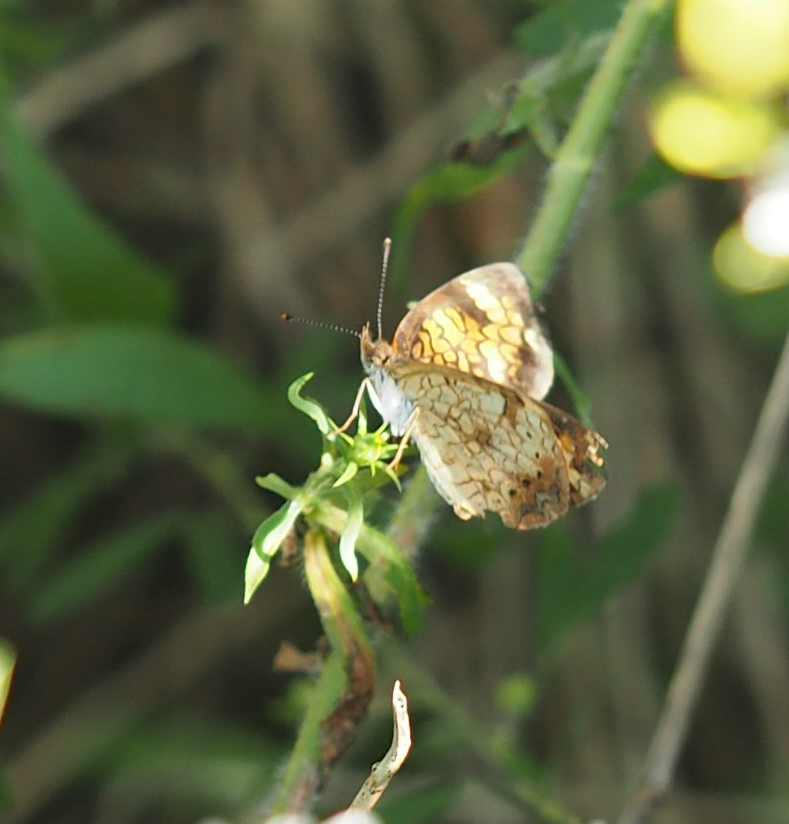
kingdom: Animalia
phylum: Arthropoda
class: Insecta
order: Lepidoptera
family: Nymphalidae
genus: Phyciodes
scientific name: Phyciodes tharos
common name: Pearl crescent
